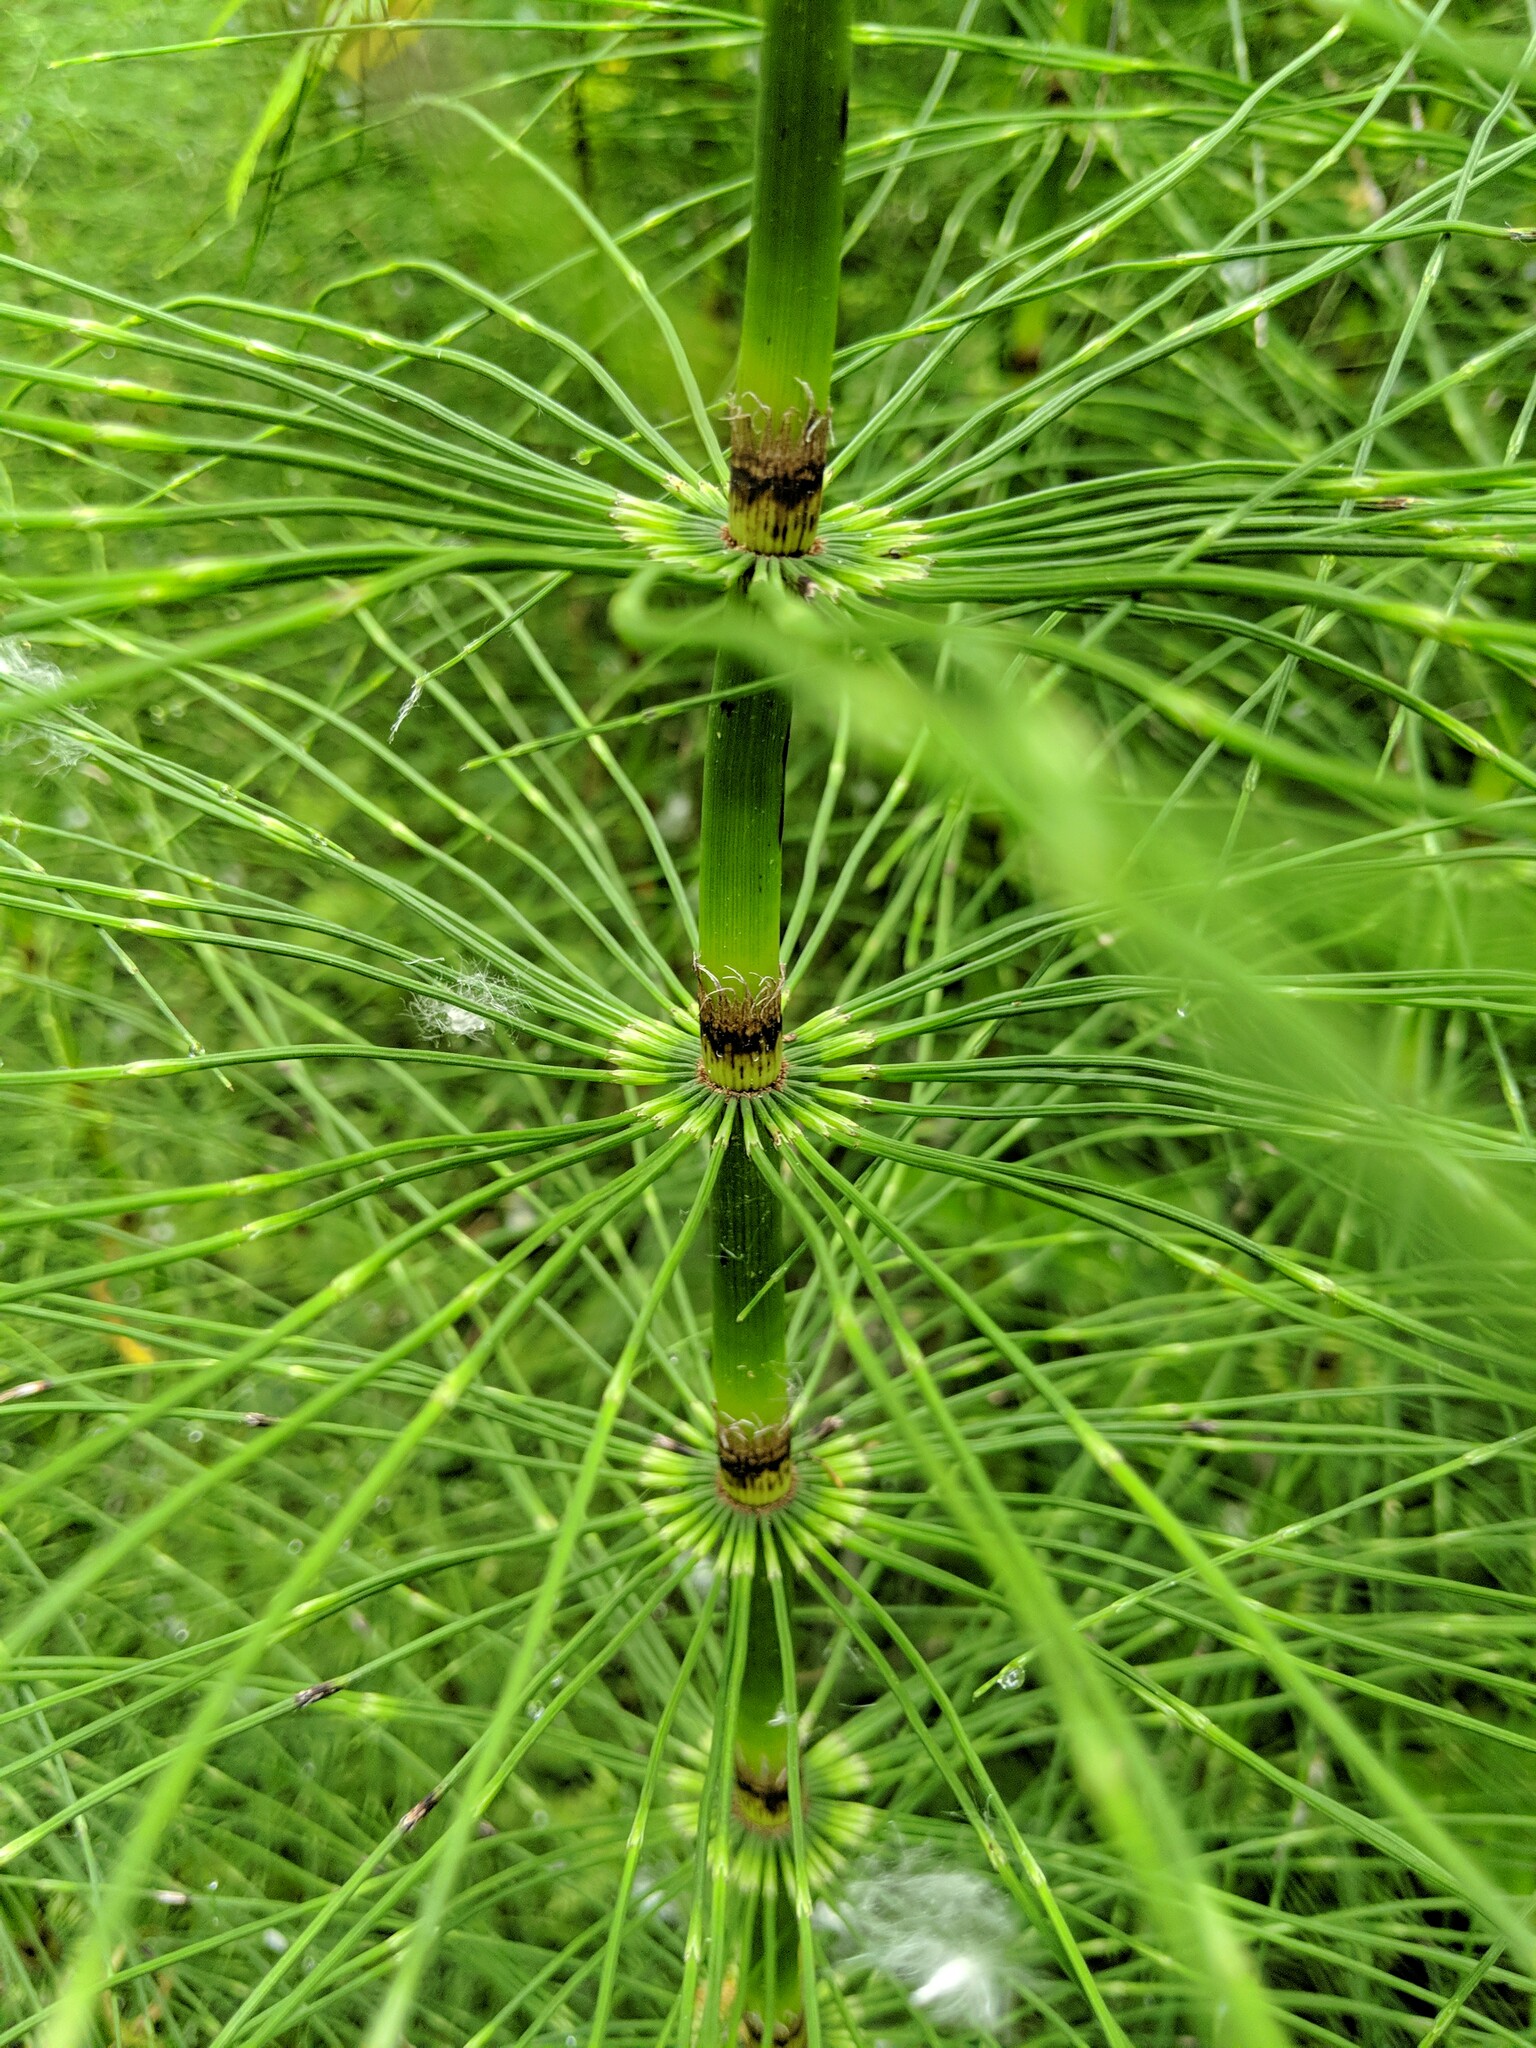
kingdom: Plantae
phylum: Tracheophyta
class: Polypodiopsida
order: Equisetales
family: Equisetaceae
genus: Equisetum
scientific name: Equisetum braunii
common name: Braun's horsetail
